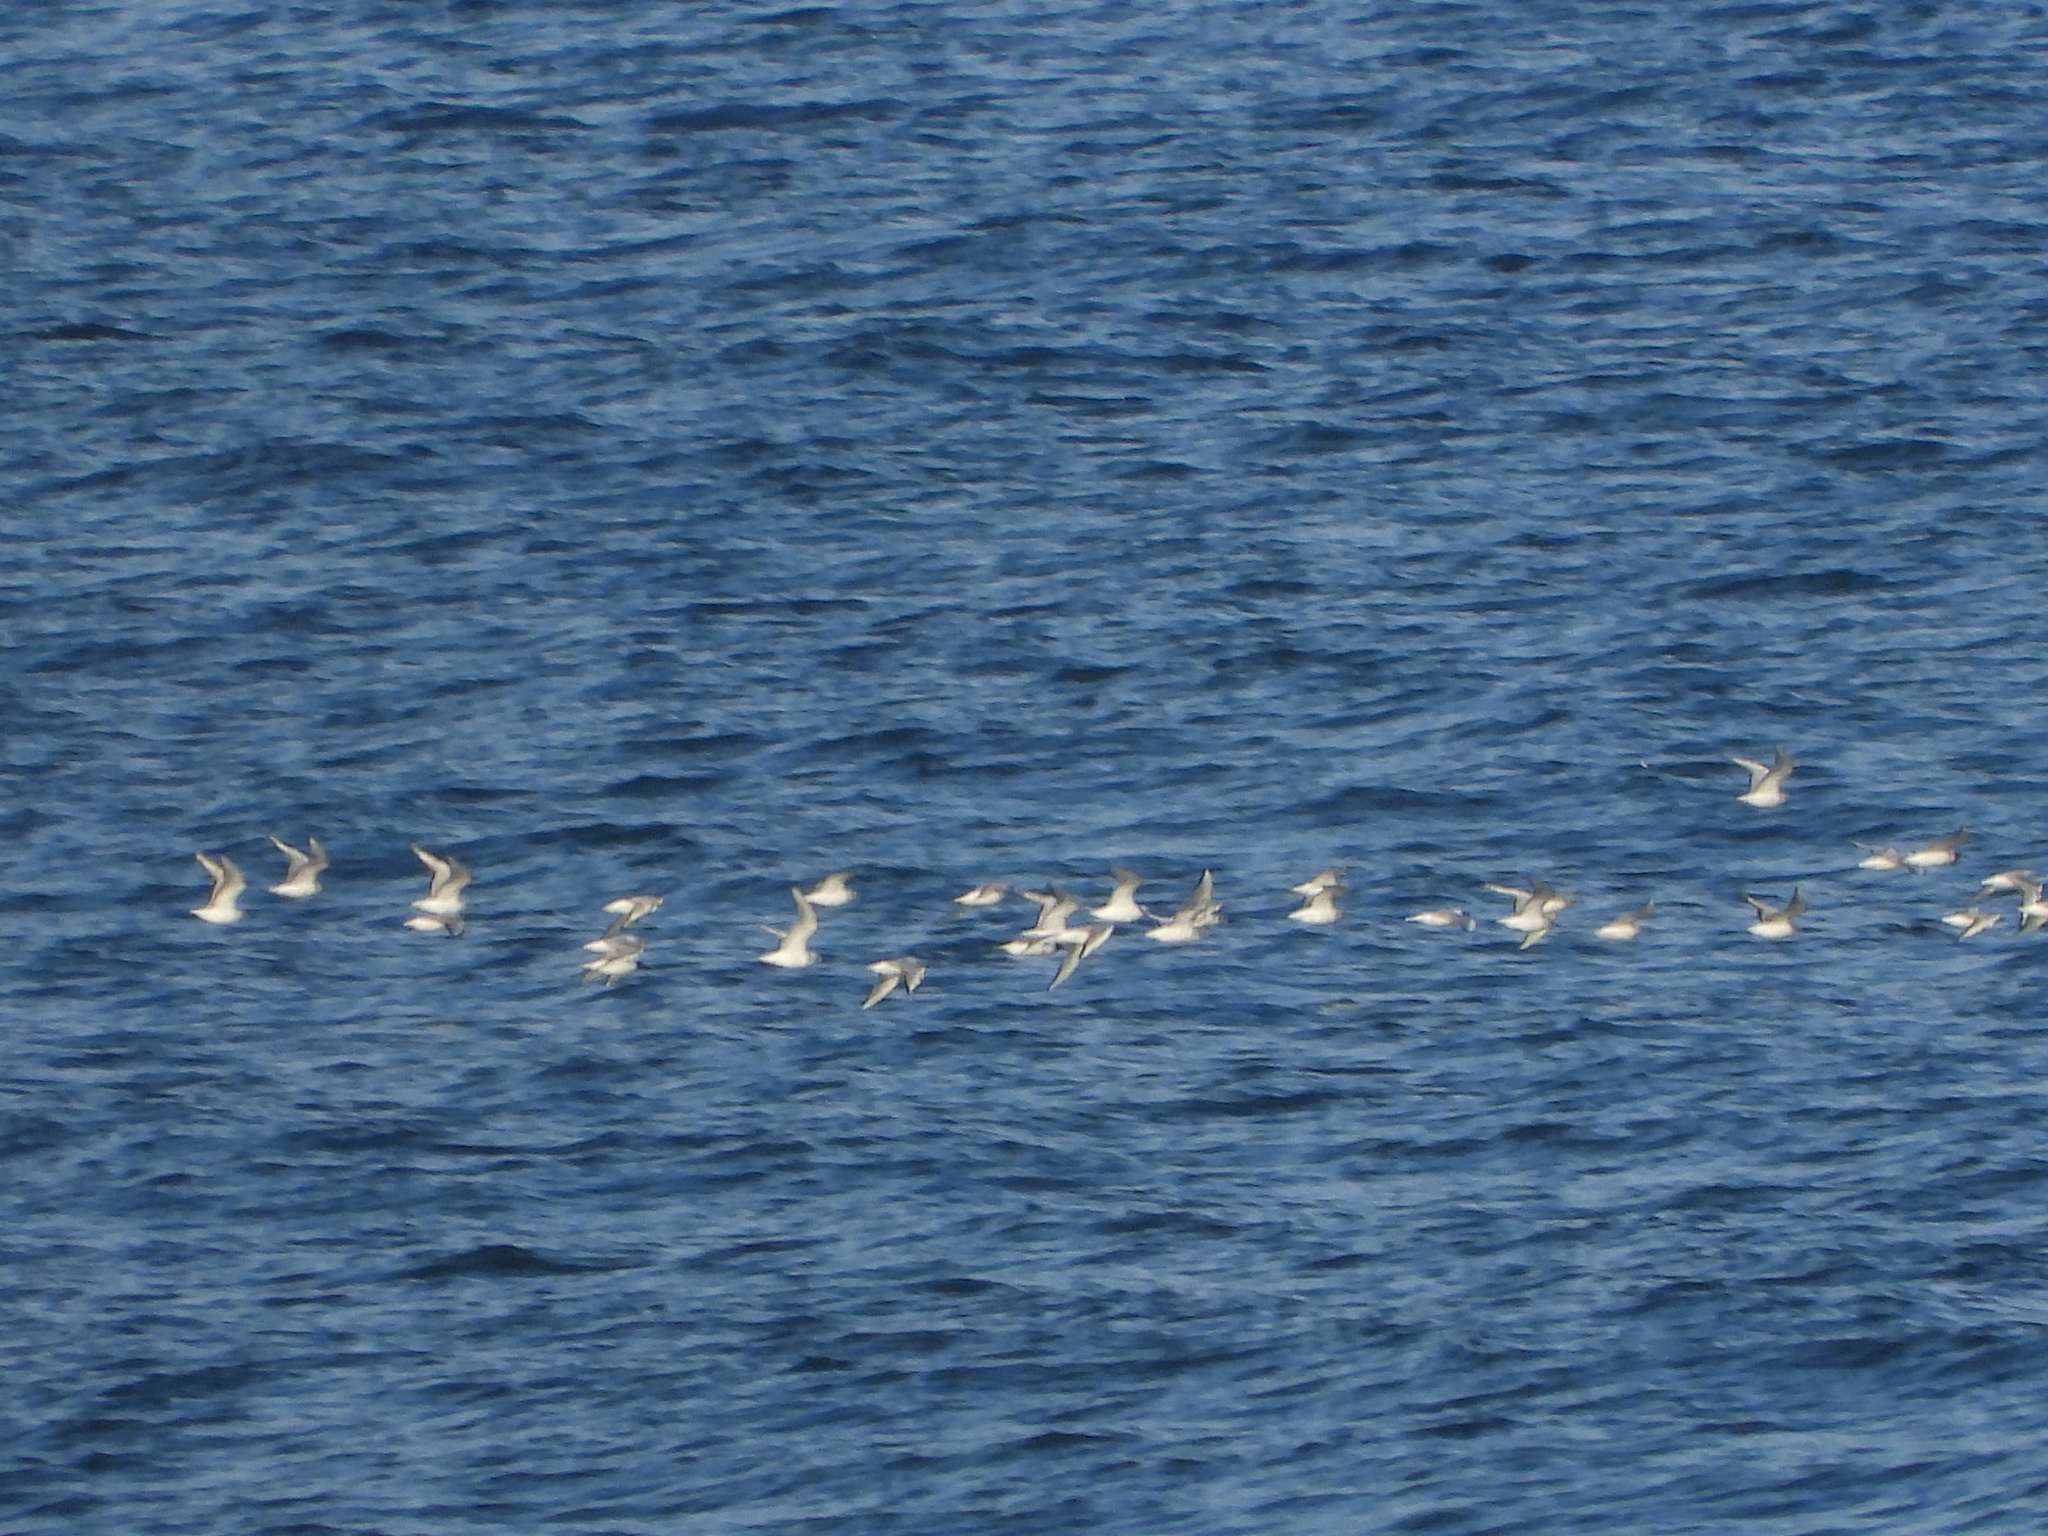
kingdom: Animalia
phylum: Chordata
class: Aves
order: Charadriiformes
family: Laridae
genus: Chroicocephalus
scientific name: Chroicocephalus philadelphia
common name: Bonaparte's gull
